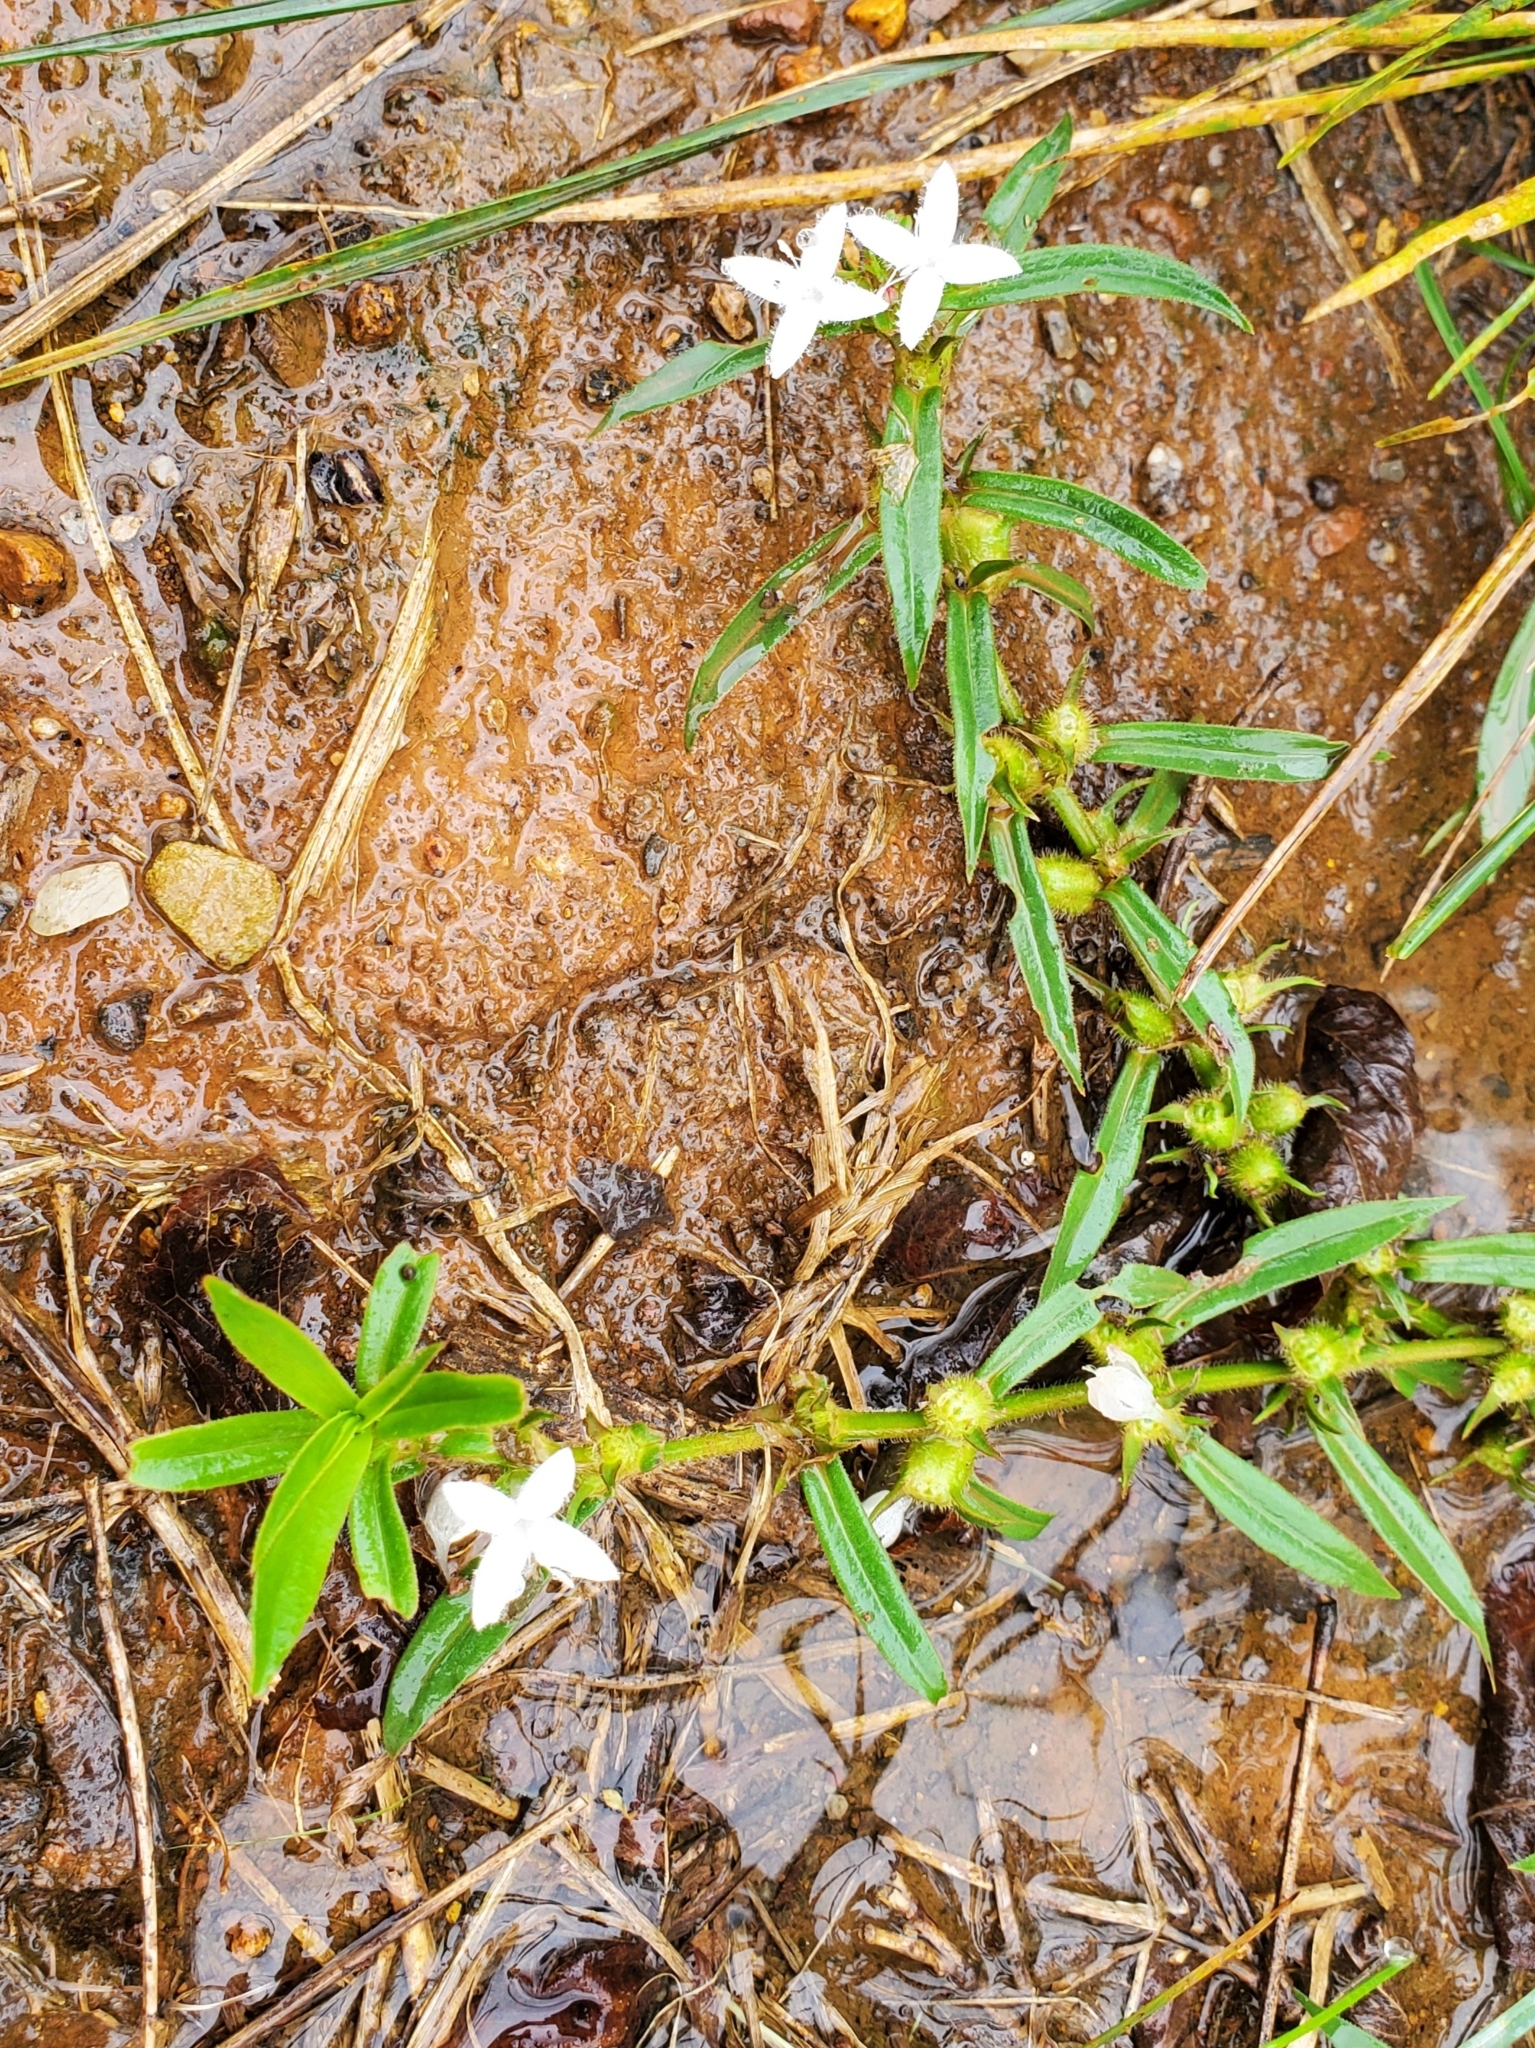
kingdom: Plantae
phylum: Tracheophyta
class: Magnoliopsida
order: Gentianales
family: Rubiaceae
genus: Diodia
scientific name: Diodia virginiana
